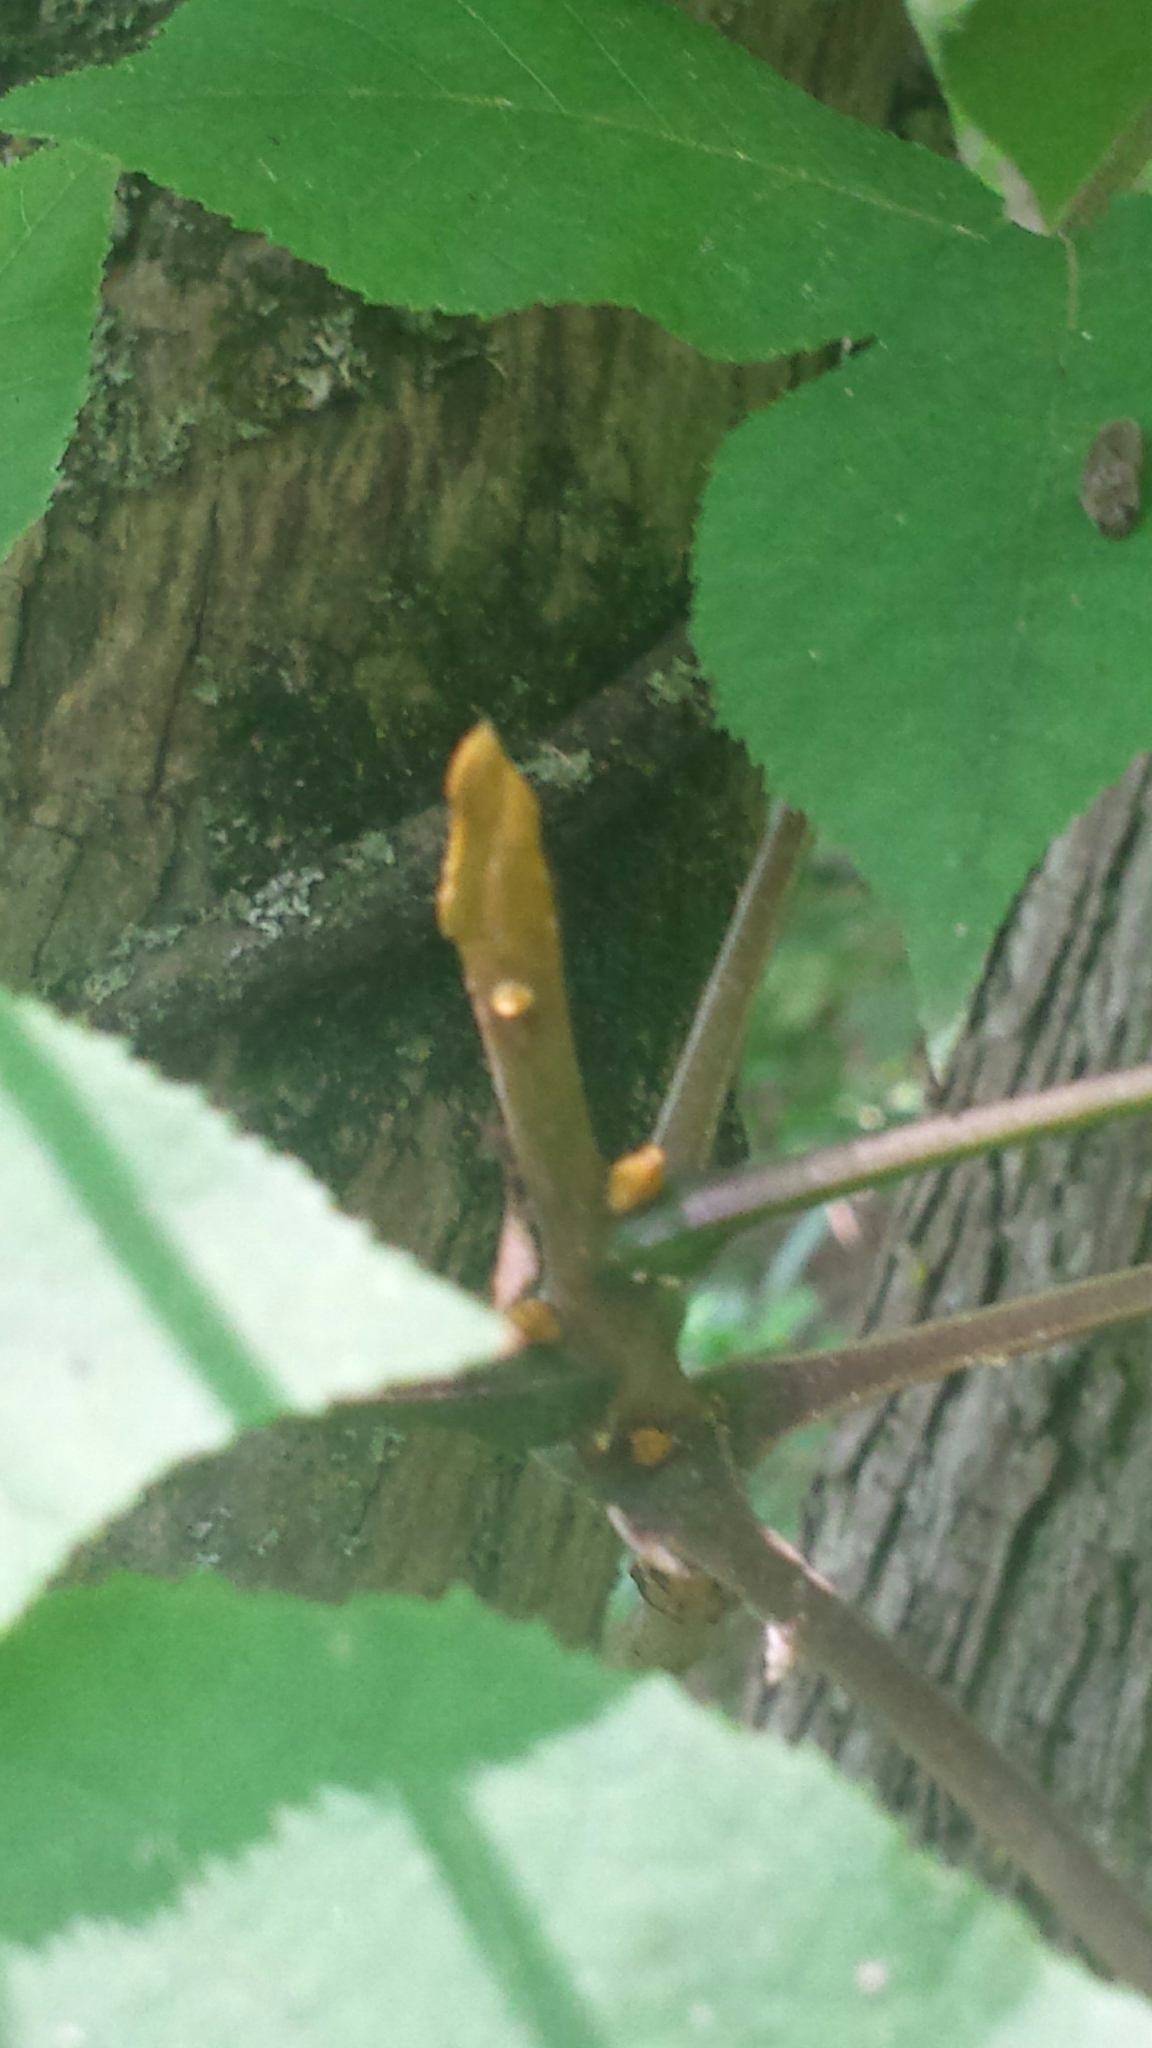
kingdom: Plantae
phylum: Tracheophyta
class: Magnoliopsida
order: Fagales
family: Juglandaceae
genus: Carya
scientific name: Carya cordiformis
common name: Bitternut hickory
